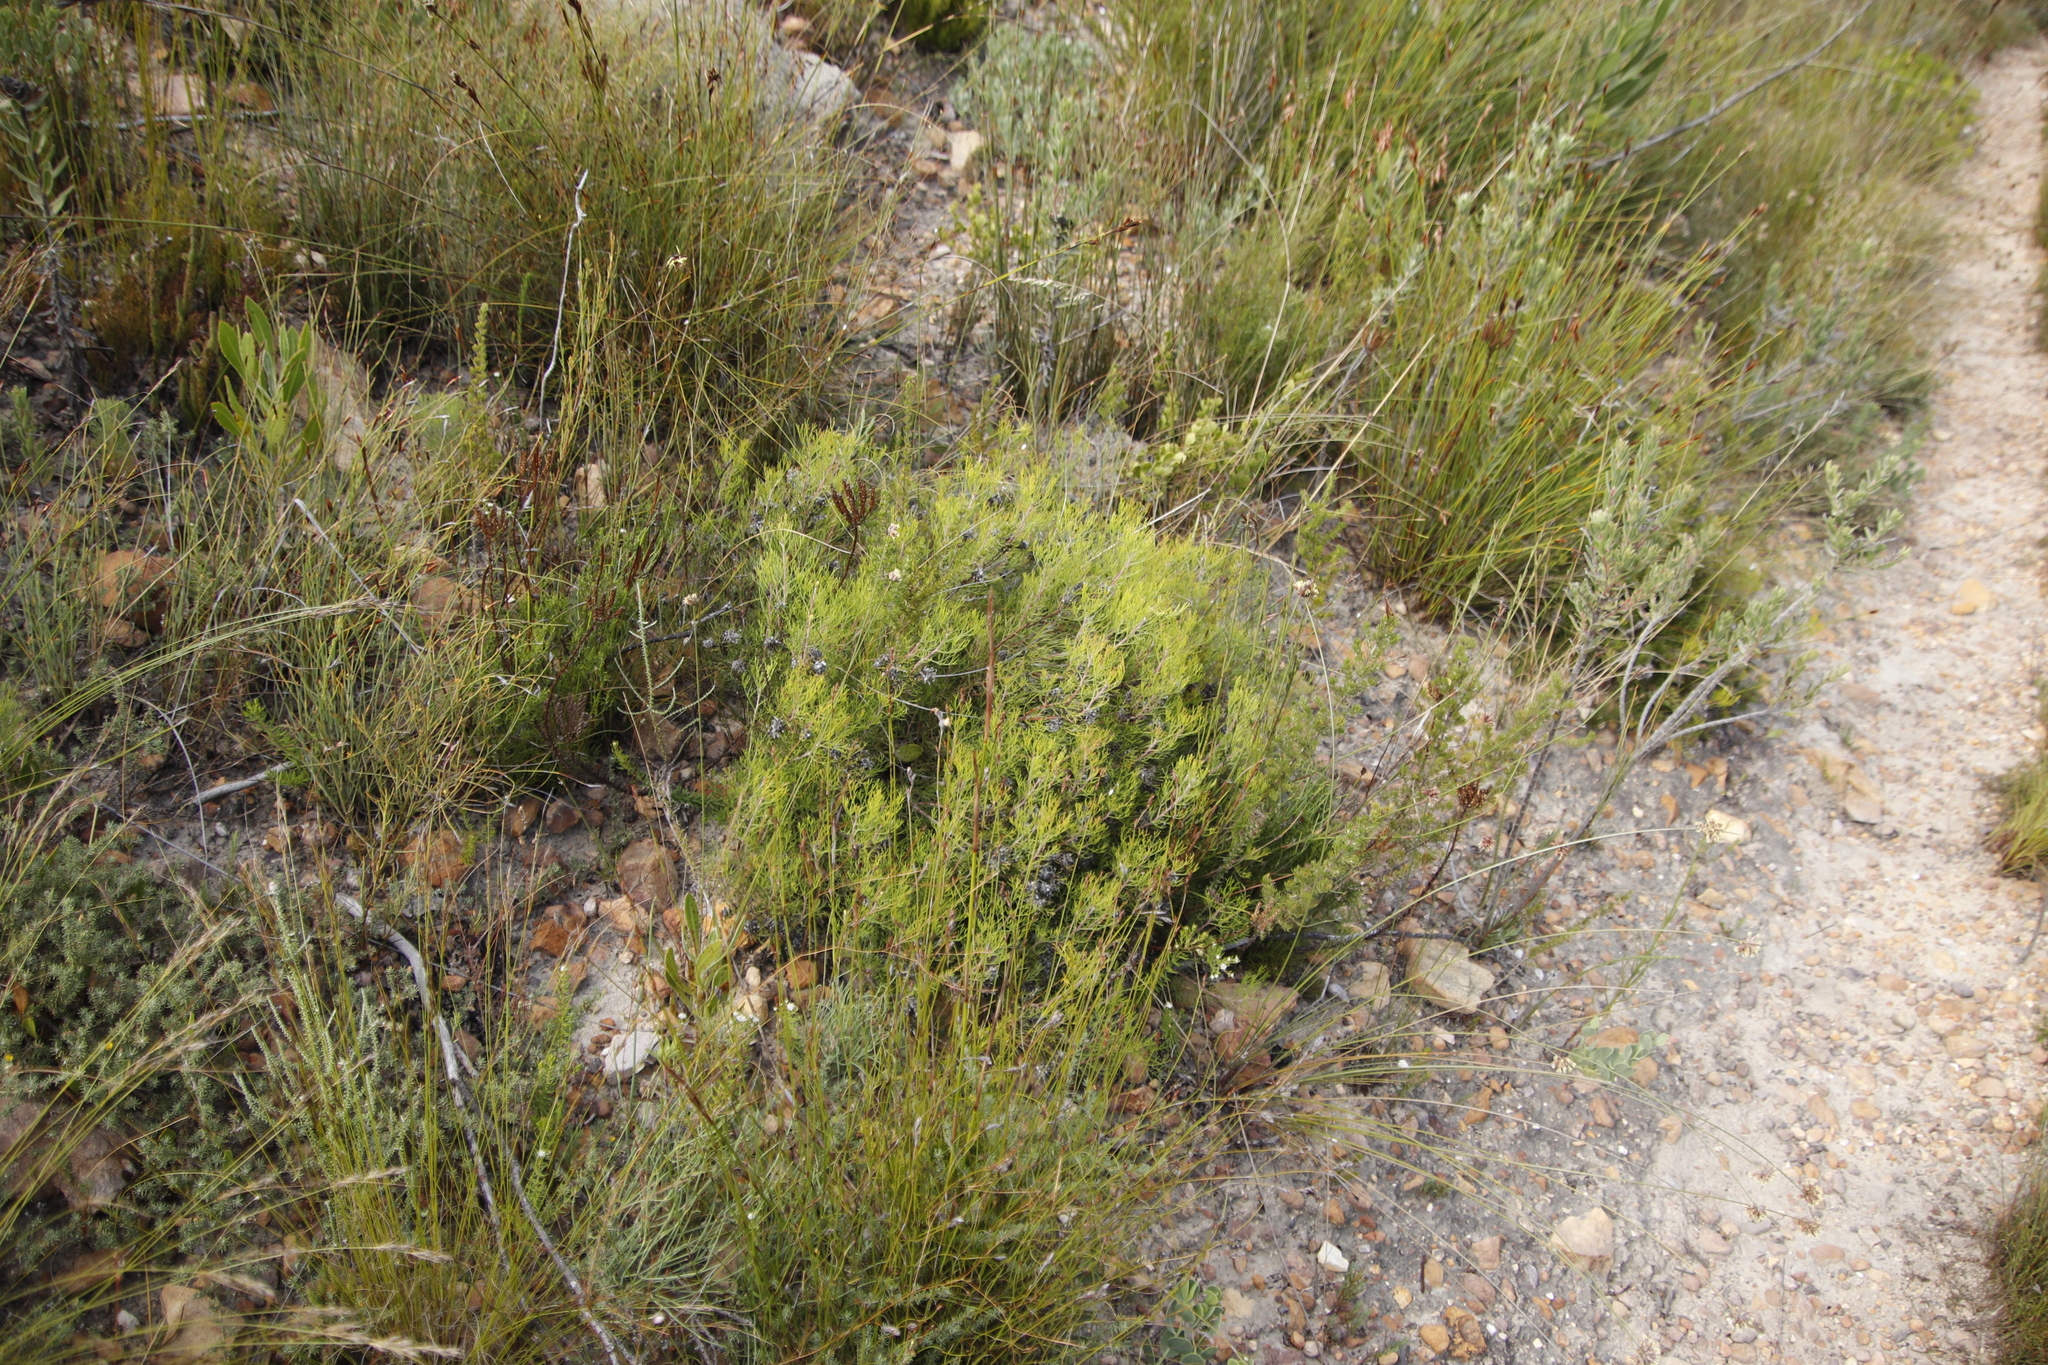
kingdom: Plantae
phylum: Tracheophyta
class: Magnoliopsida
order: Proteales
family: Proteaceae
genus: Serruria
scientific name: Serruria
